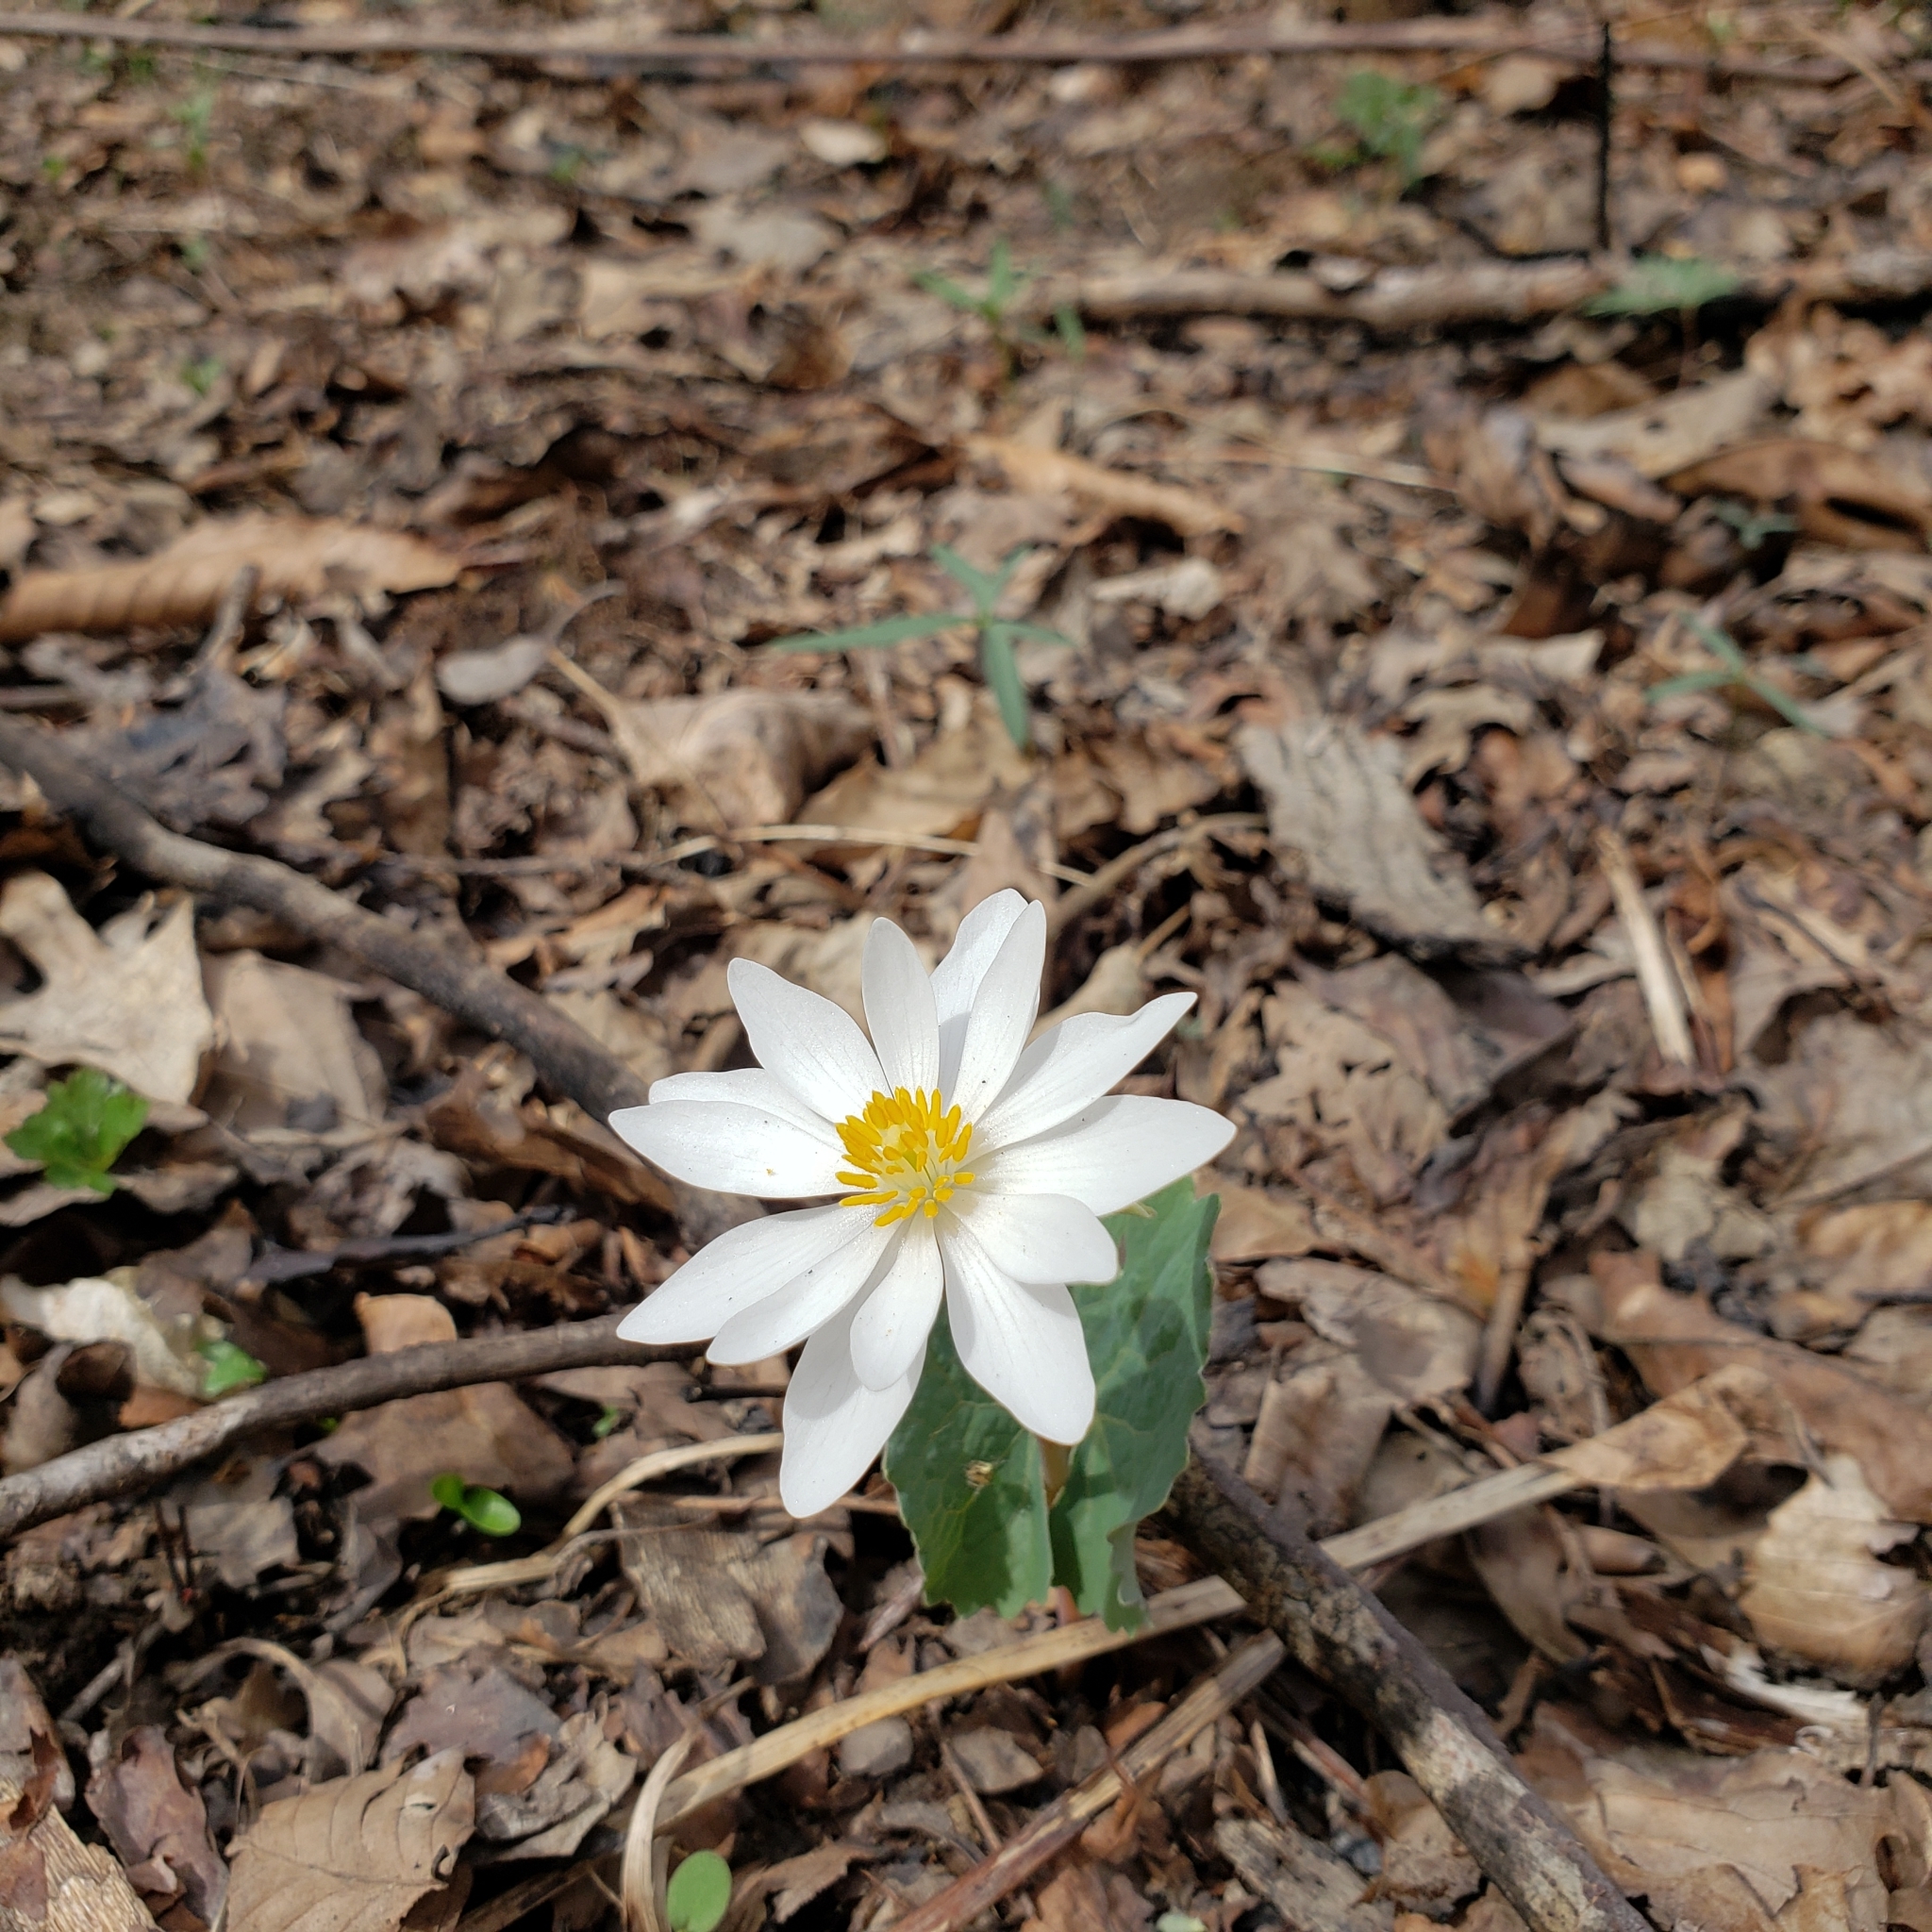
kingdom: Plantae
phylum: Tracheophyta
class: Magnoliopsida
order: Ranunculales
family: Papaveraceae
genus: Sanguinaria
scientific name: Sanguinaria canadensis
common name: Bloodroot
